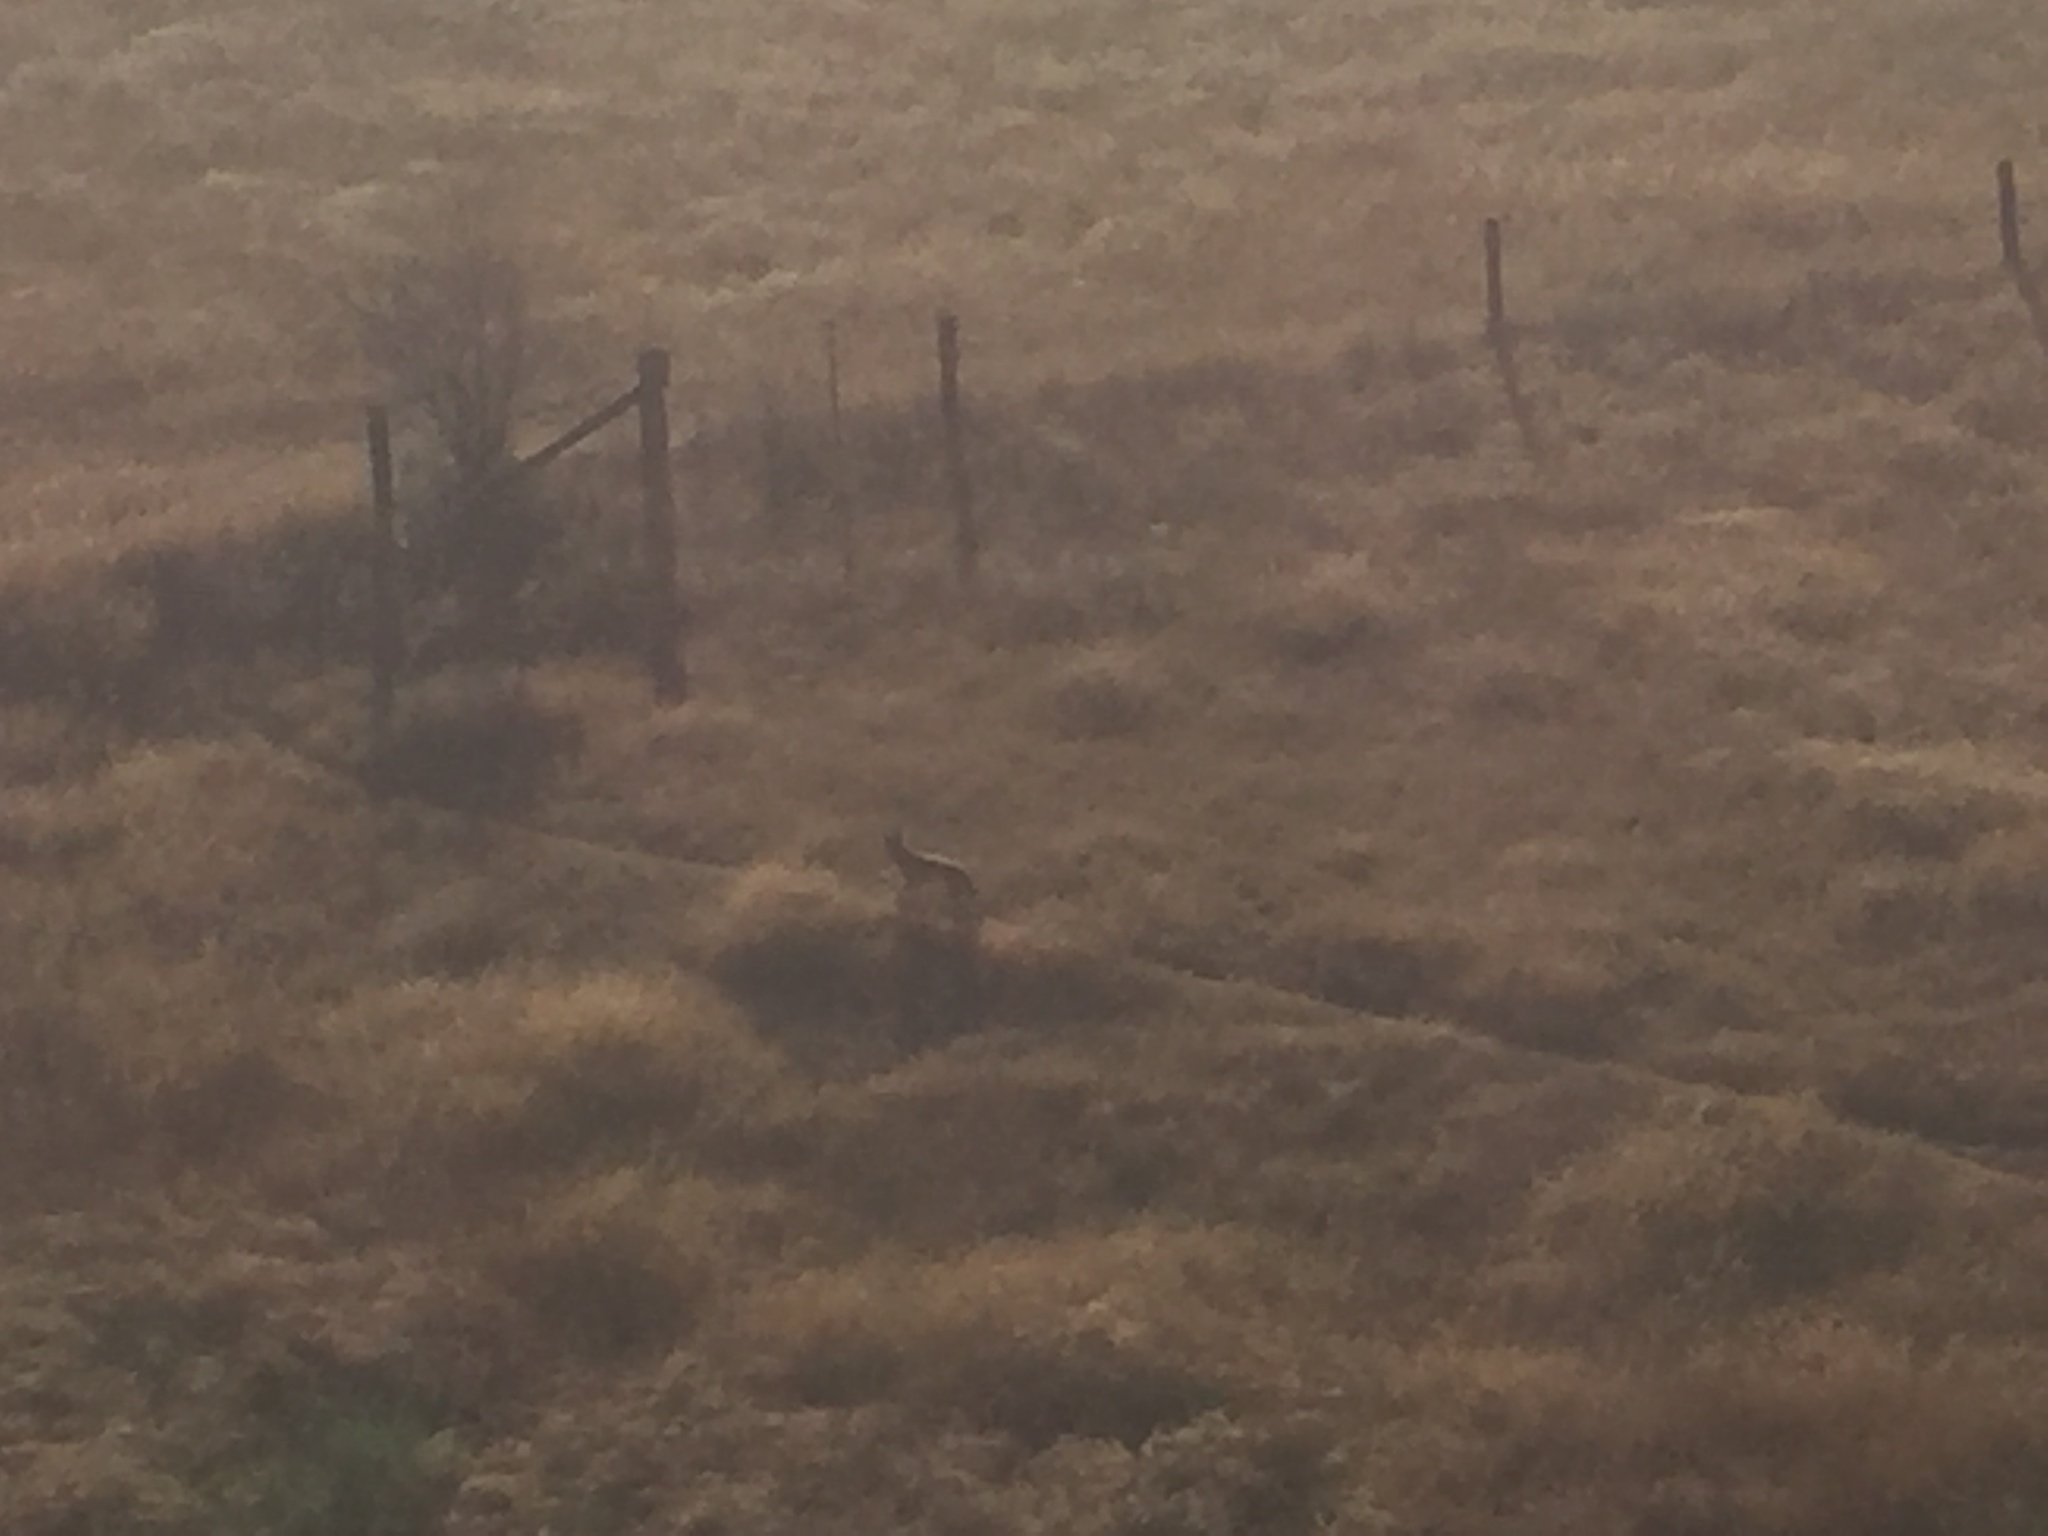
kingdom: Animalia
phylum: Chordata
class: Mammalia
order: Carnivora
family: Canidae
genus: Canis
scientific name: Canis latrans
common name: Coyote
